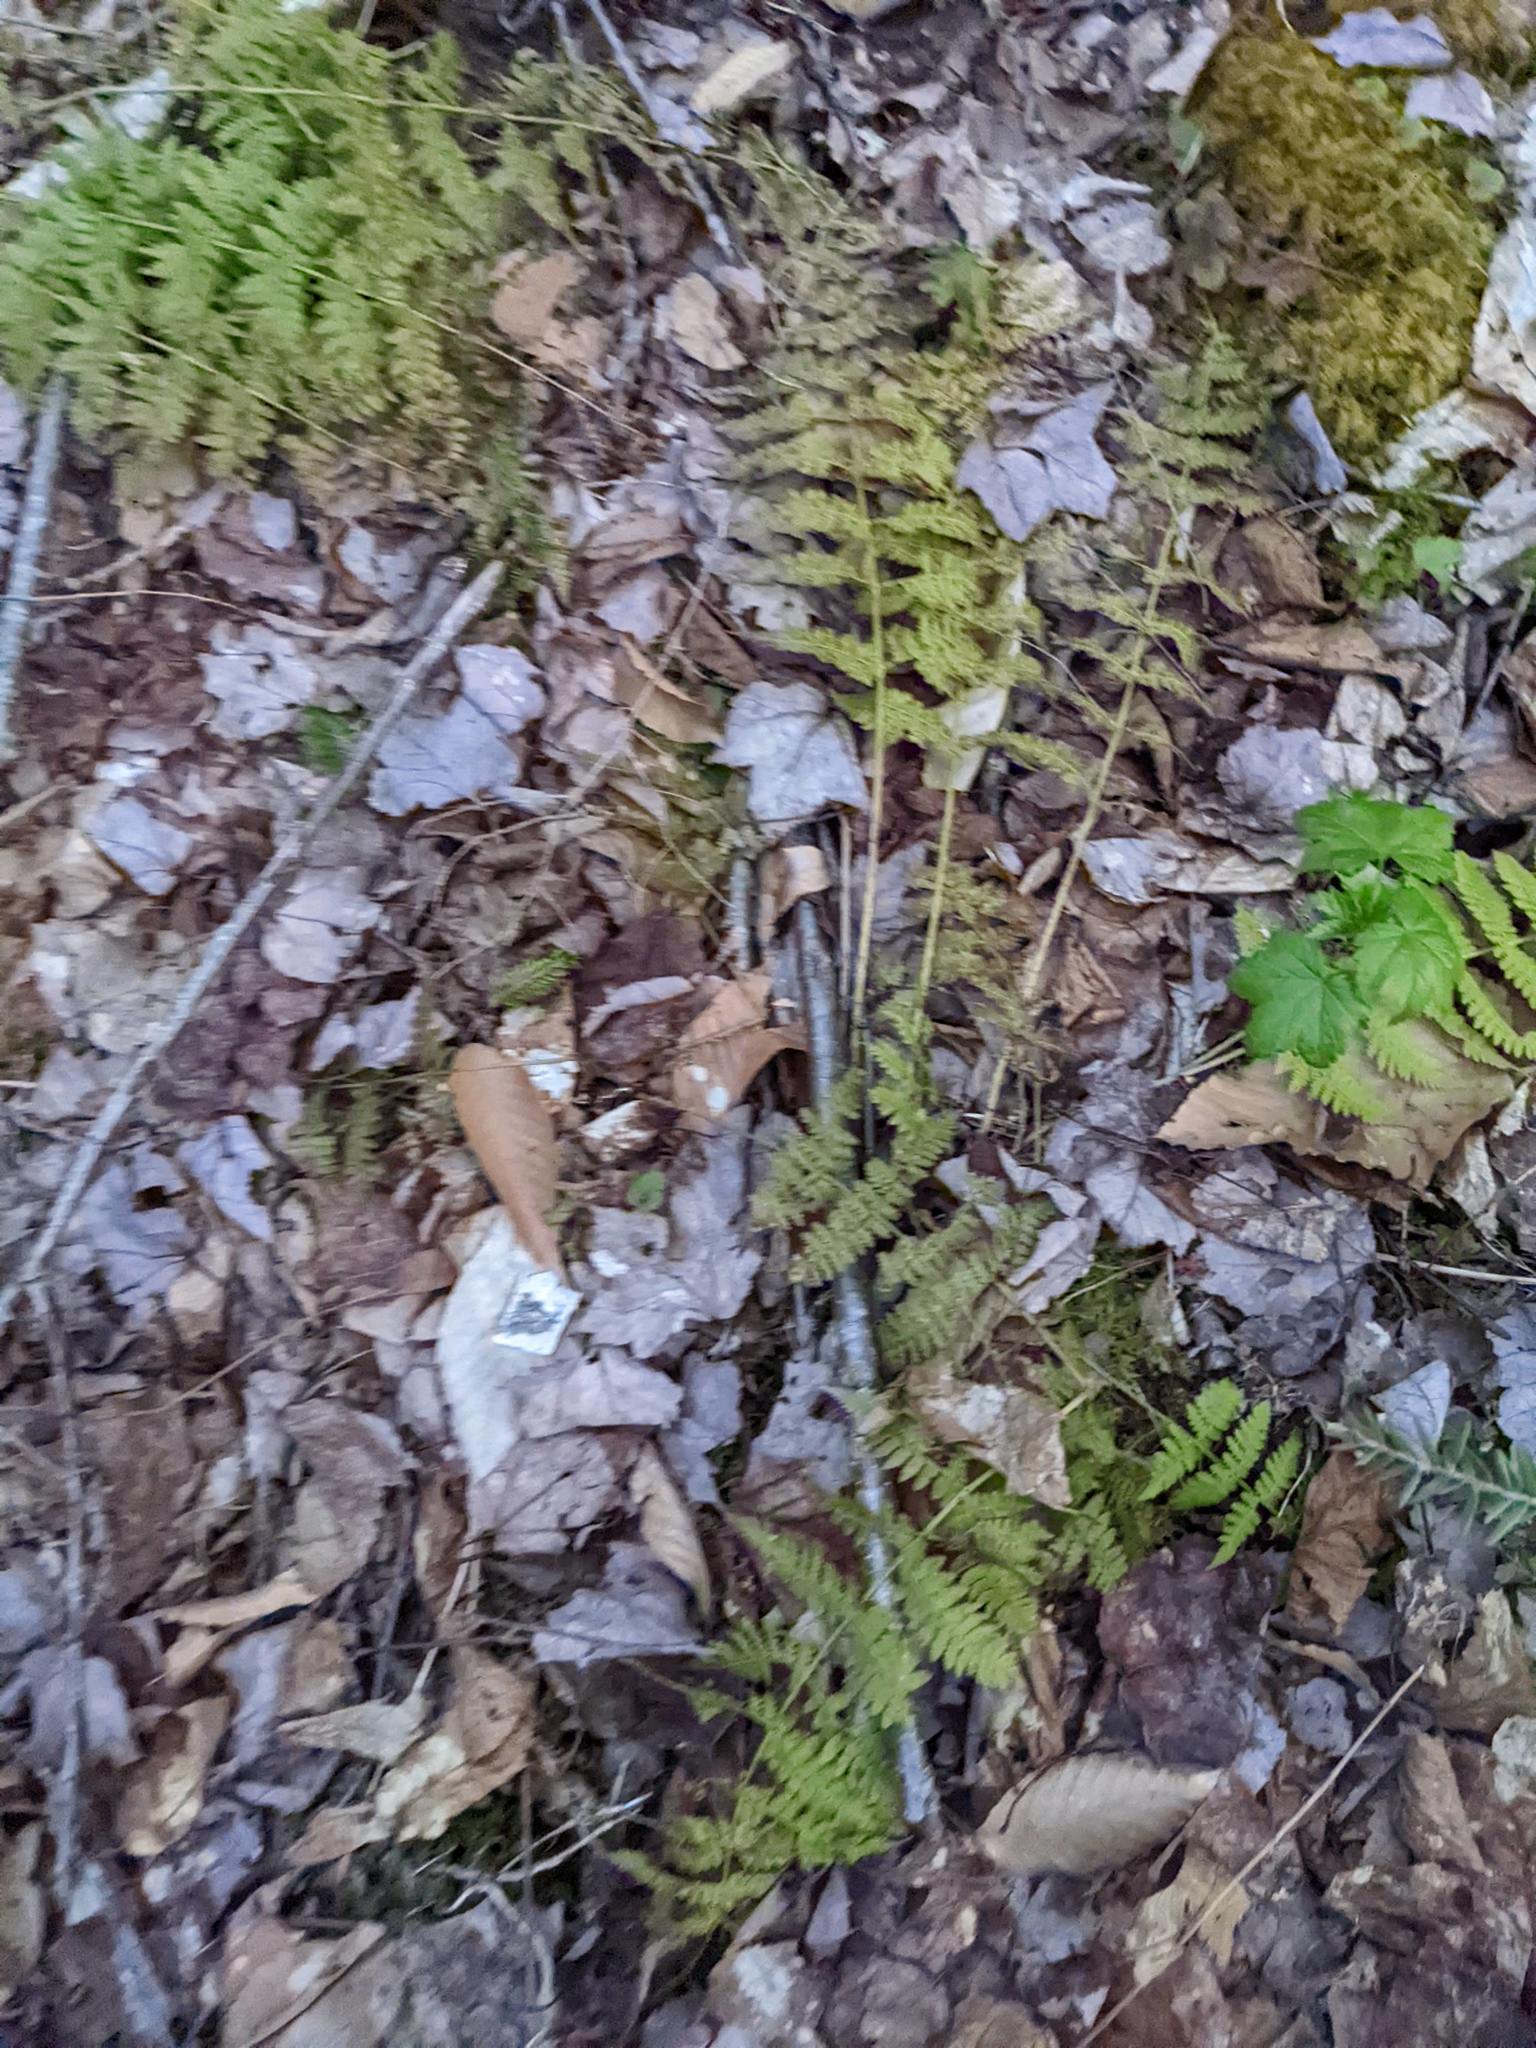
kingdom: Plantae
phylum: Tracheophyta
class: Polypodiopsida
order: Polypodiales
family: Dryopteridaceae
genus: Dryopteris
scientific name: Dryopteris intermedia
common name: Evergreen wood fern
